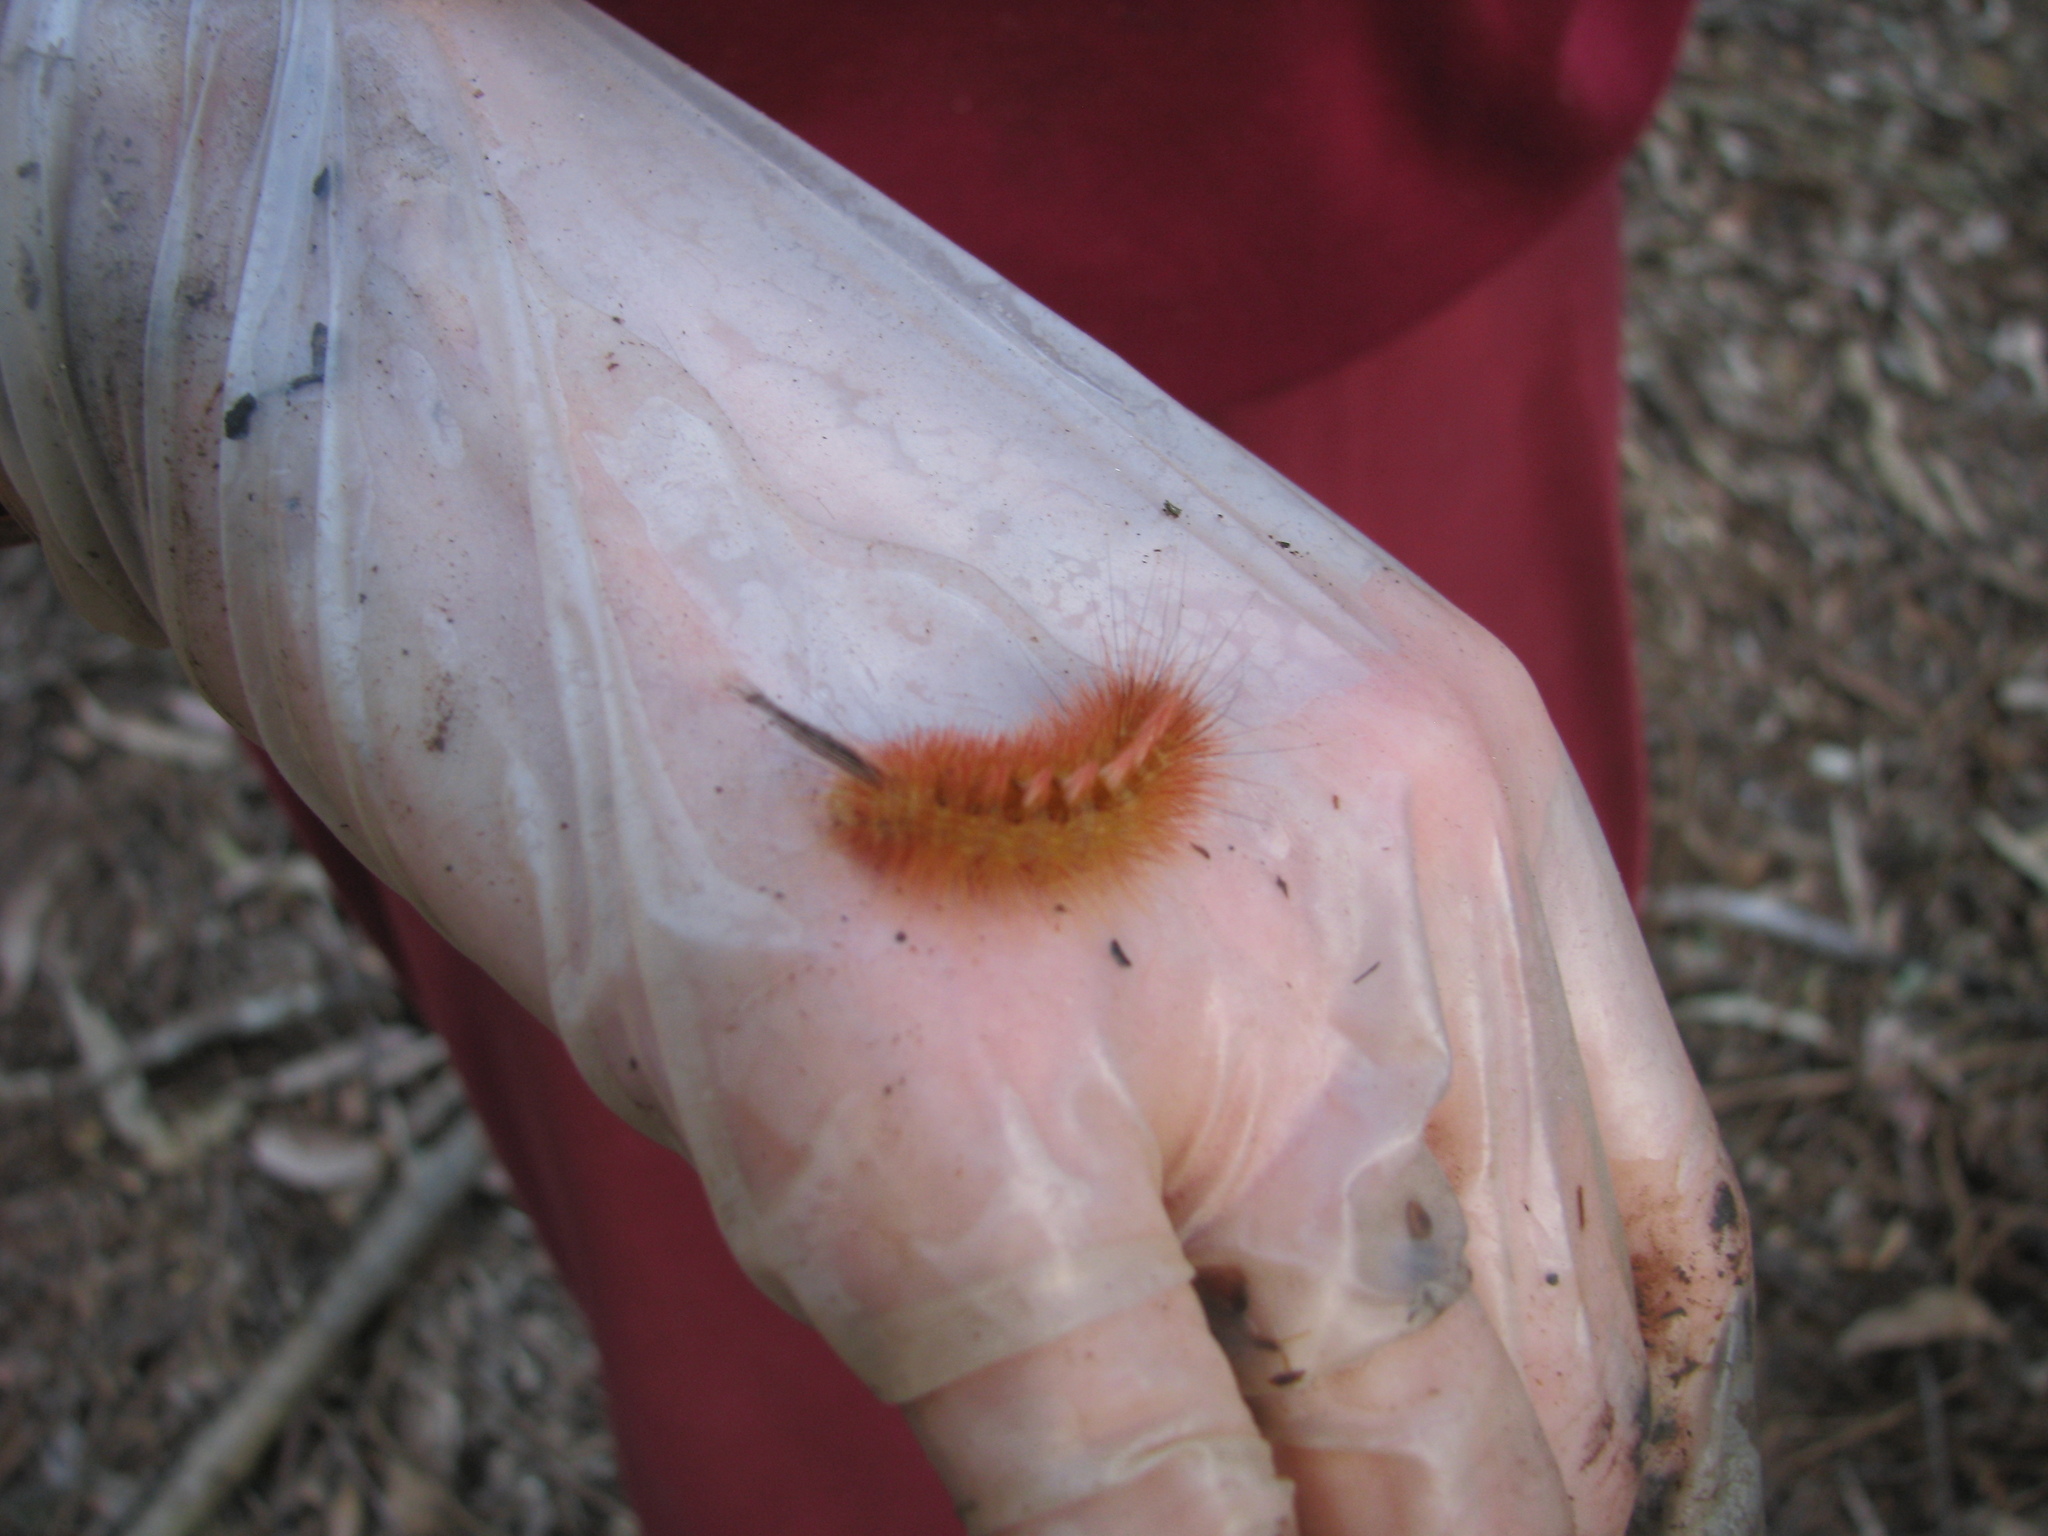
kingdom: Animalia
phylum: Arthropoda
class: Insecta
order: Lepidoptera
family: Anthelidae
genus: Chenuala
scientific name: Chenuala heliaspis
